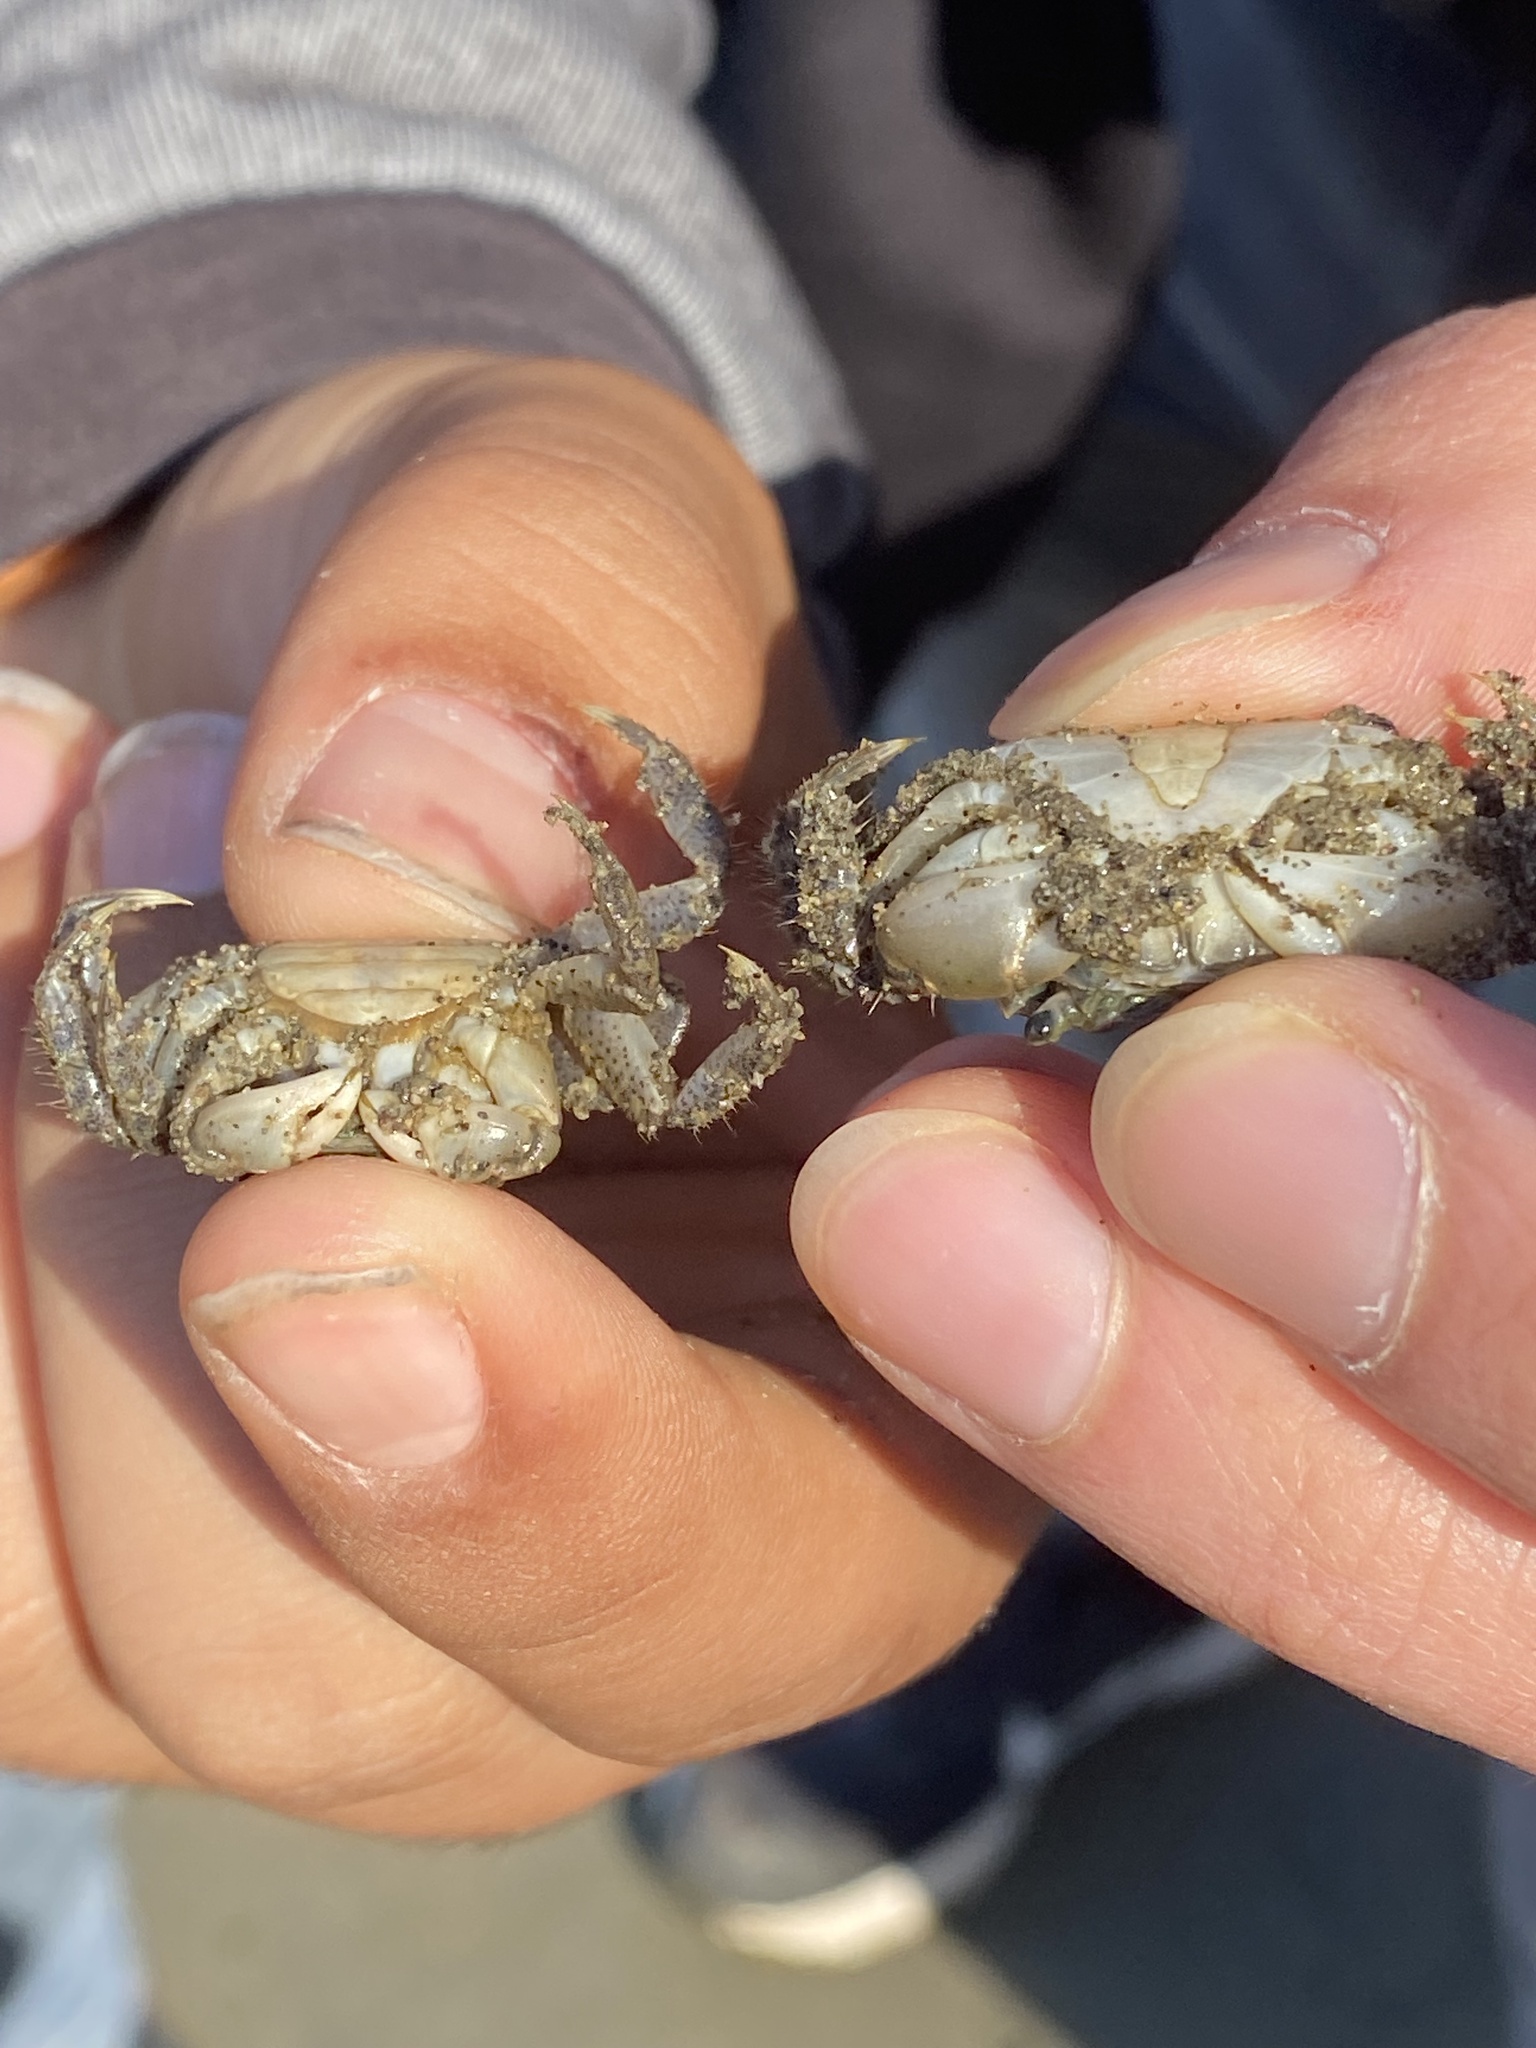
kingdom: Animalia
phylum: Arthropoda
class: Malacostraca
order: Decapoda
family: Varunidae
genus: Hemigrapsus
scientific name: Hemigrapsus oregonensis
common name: Yellow shore crab
